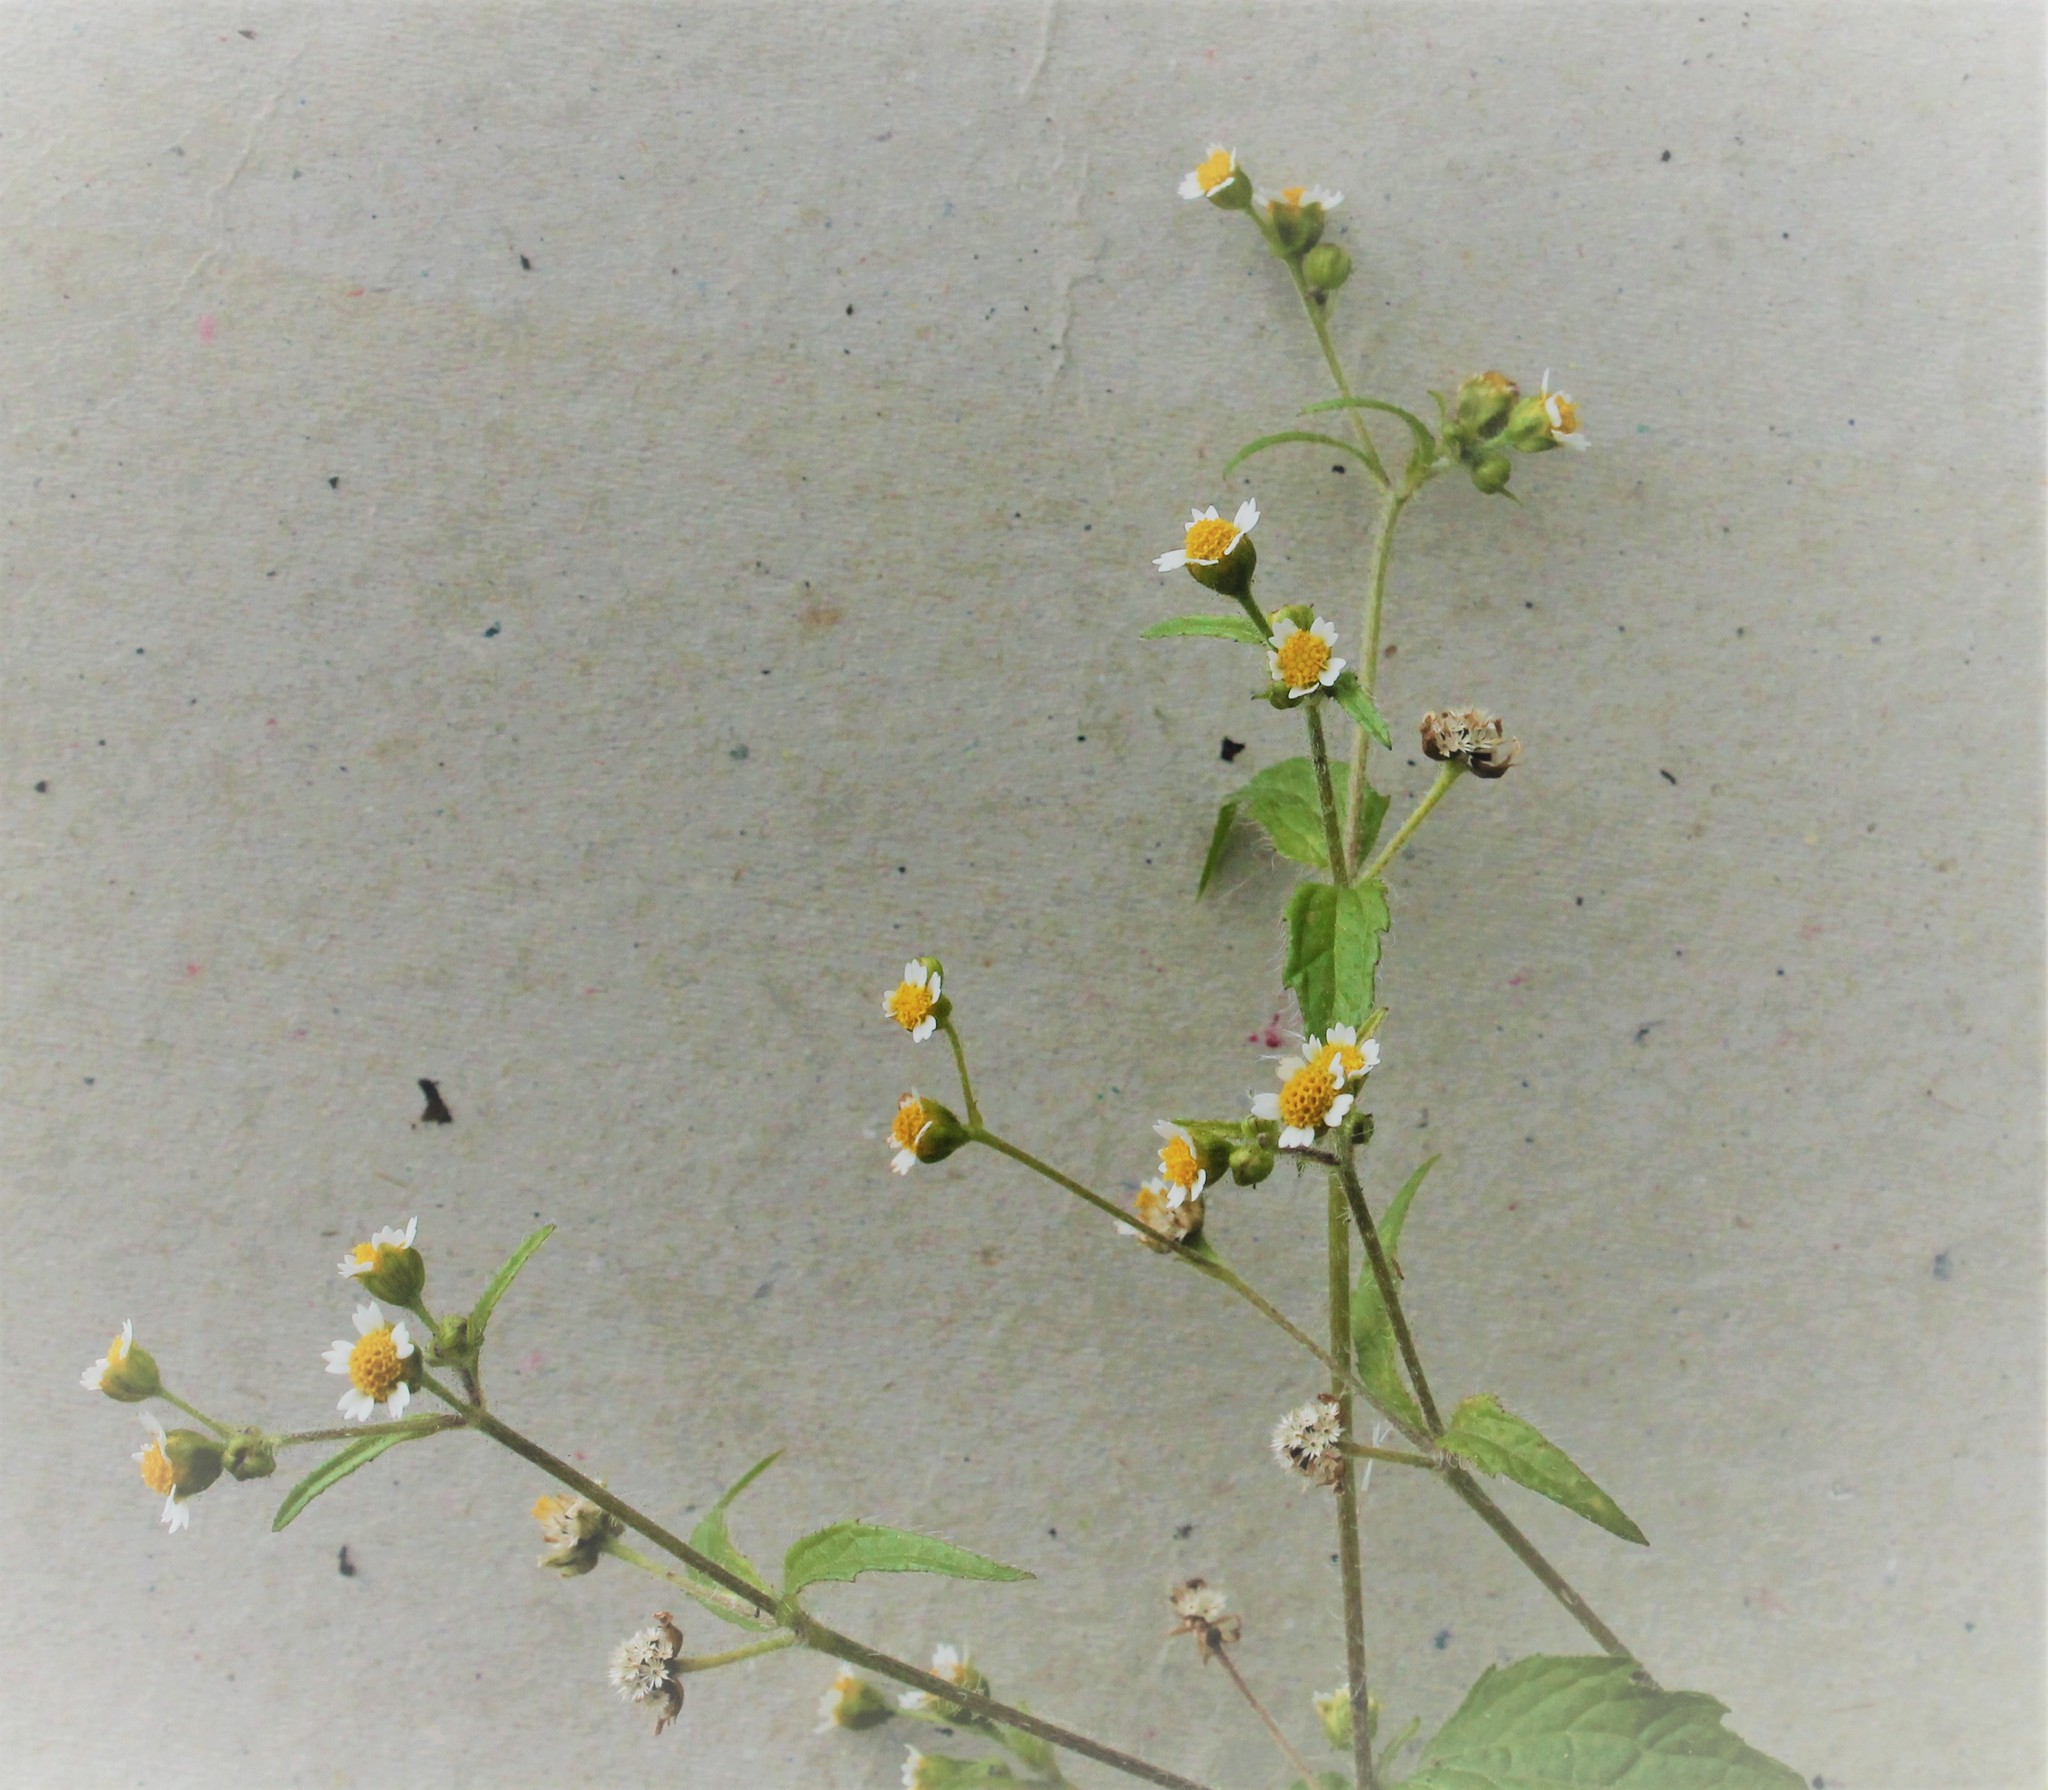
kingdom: Plantae
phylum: Tracheophyta
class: Magnoliopsida
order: Asterales
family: Asteraceae
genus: Galinsoga
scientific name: Galinsoga quadriradiata
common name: Shaggy soldier
